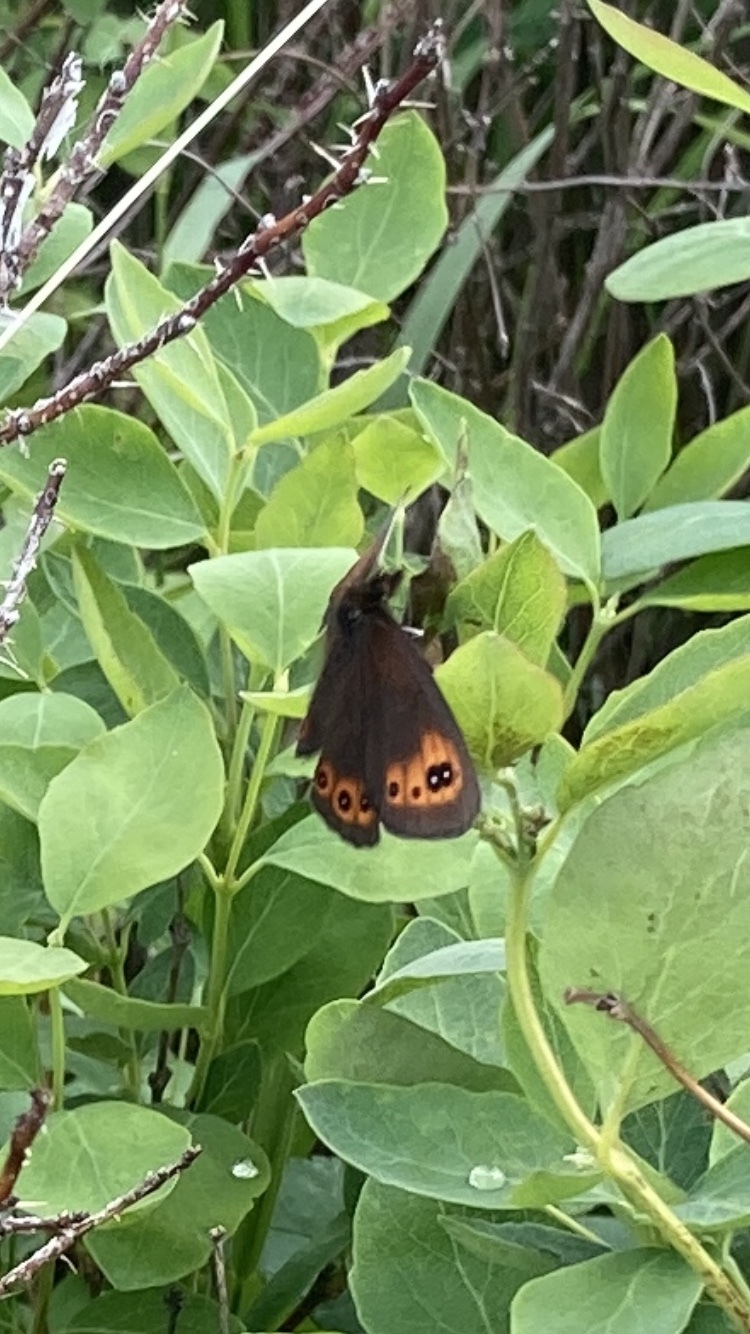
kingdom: Animalia
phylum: Arthropoda
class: Insecta
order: Lepidoptera
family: Nymphalidae
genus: Erebia
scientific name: Erebia epipsodea
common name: Common alpine
